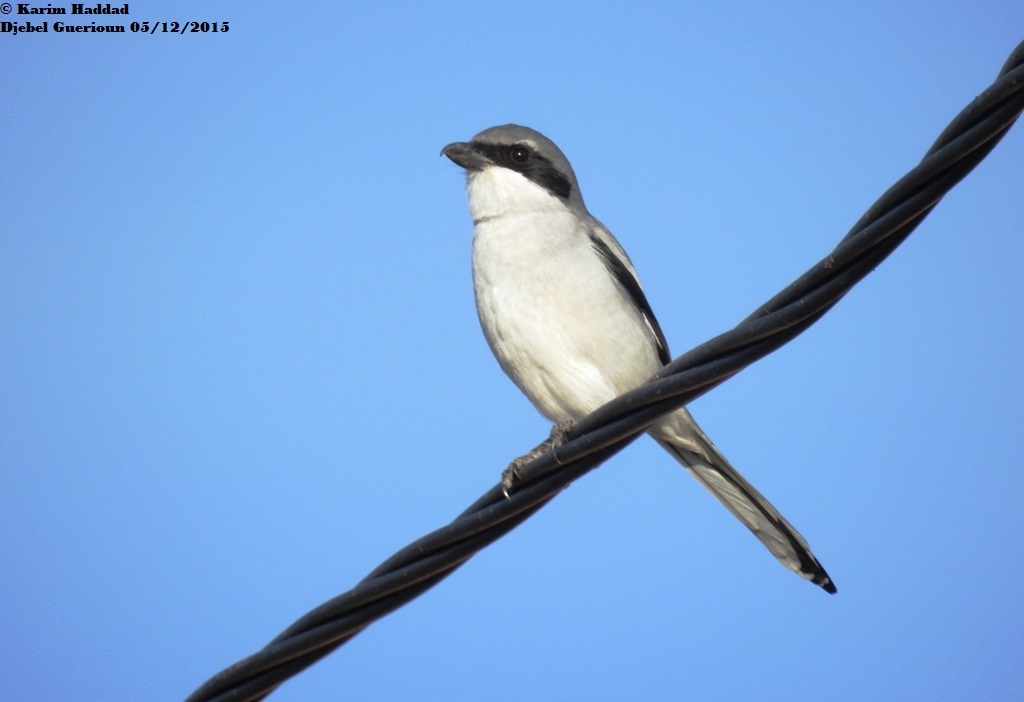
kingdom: Animalia
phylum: Chordata
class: Aves
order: Passeriformes
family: Laniidae
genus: Lanius
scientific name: Lanius excubitor
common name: Great grey shrike
